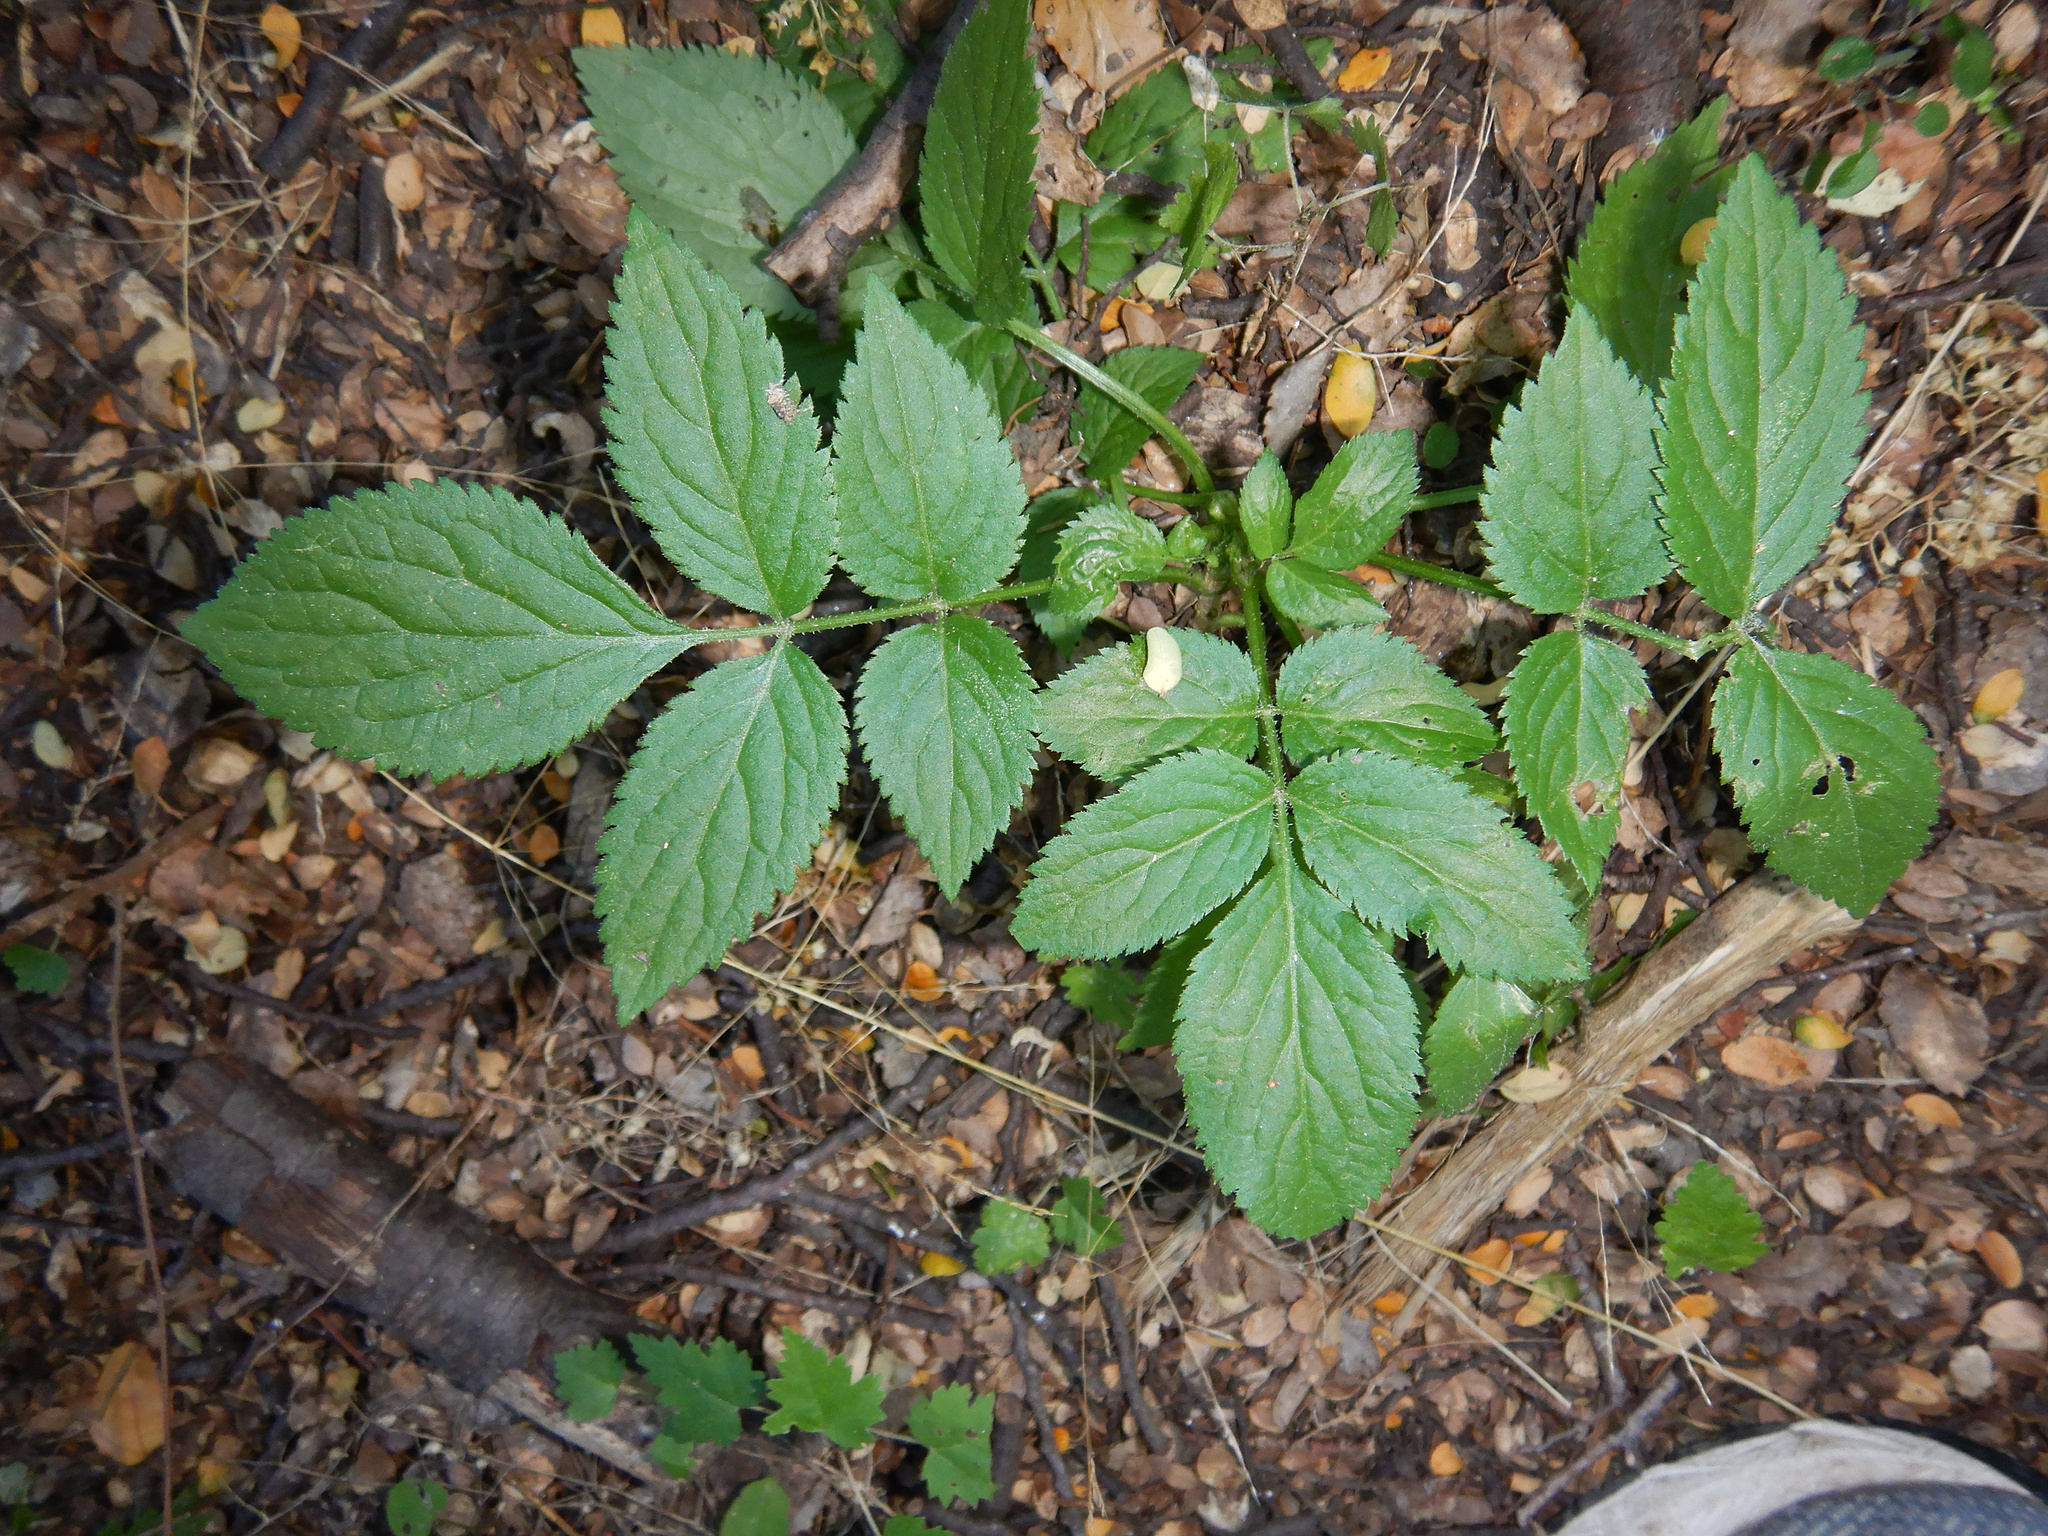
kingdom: Plantae
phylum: Tracheophyta
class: Magnoliopsida
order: Dipsacales
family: Viburnaceae
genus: Sambucus
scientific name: Sambucus nigra
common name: Elder
